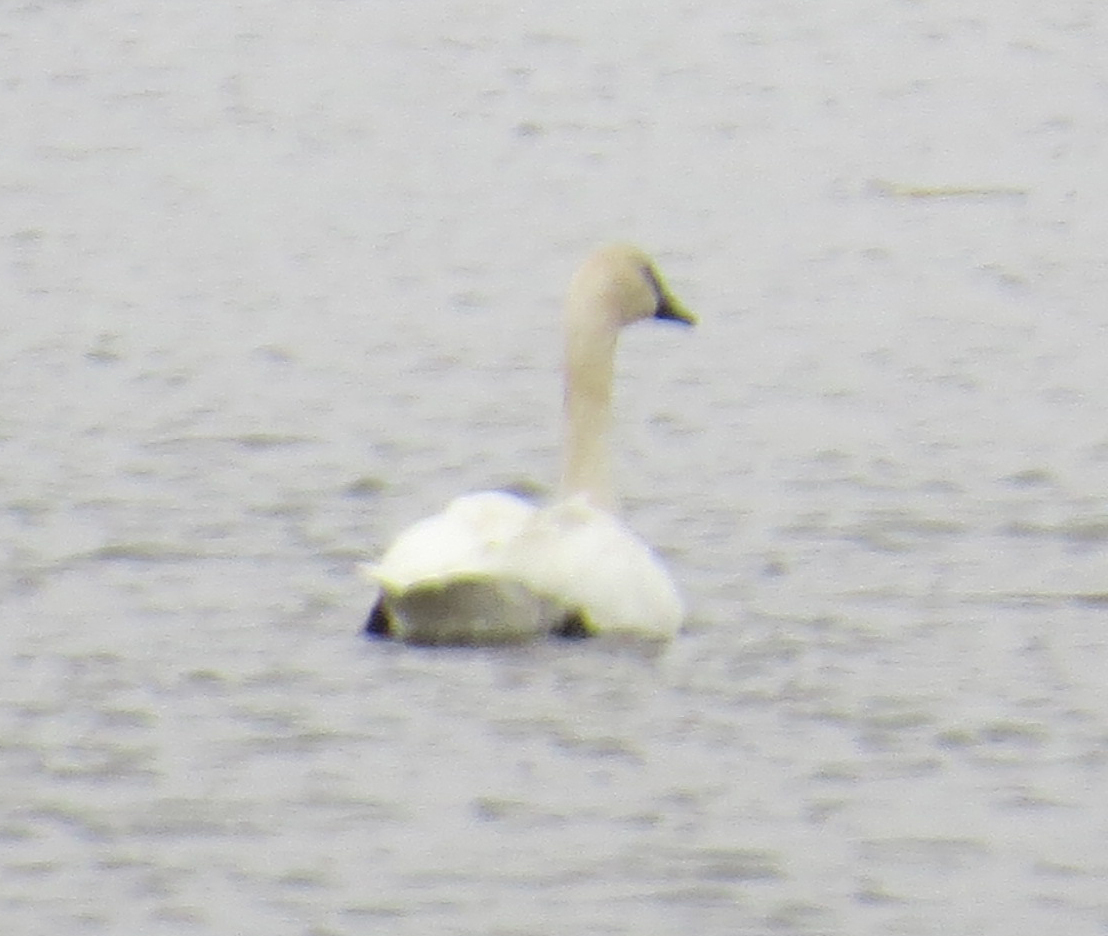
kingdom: Animalia
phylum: Chordata
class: Aves
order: Anseriformes
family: Anatidae
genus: Cygnus
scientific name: Cygnus buccinator
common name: Trumpeter swan
